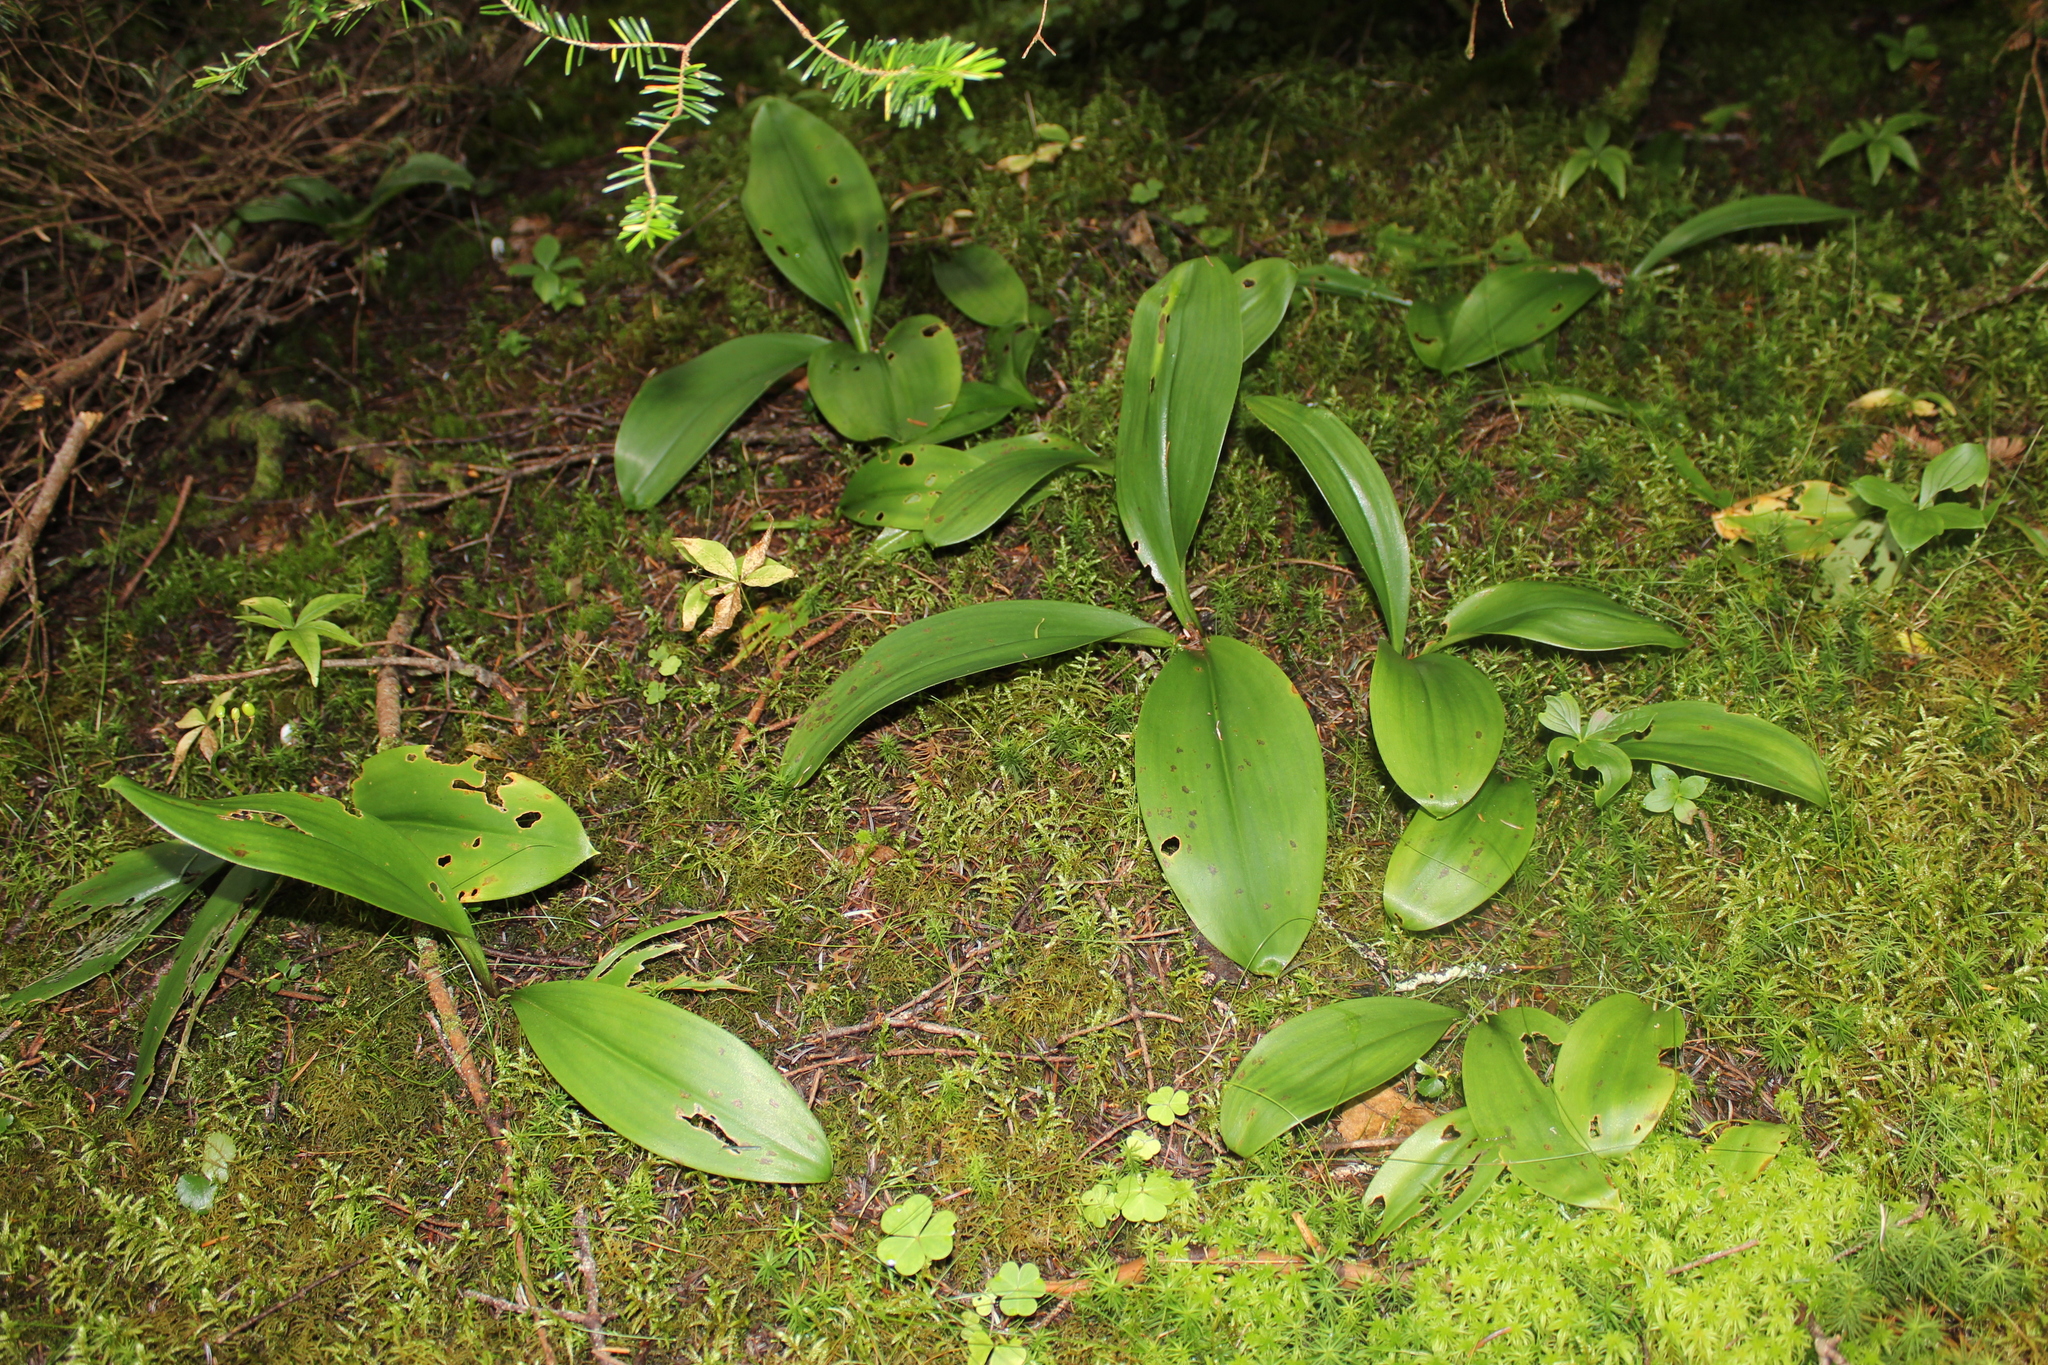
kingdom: Plantae
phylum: Tracheophyta
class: Liliopsida
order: Liliales
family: Liliaceae
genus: Clintonia
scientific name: Clintonia borealis
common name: Yellow clintonia
